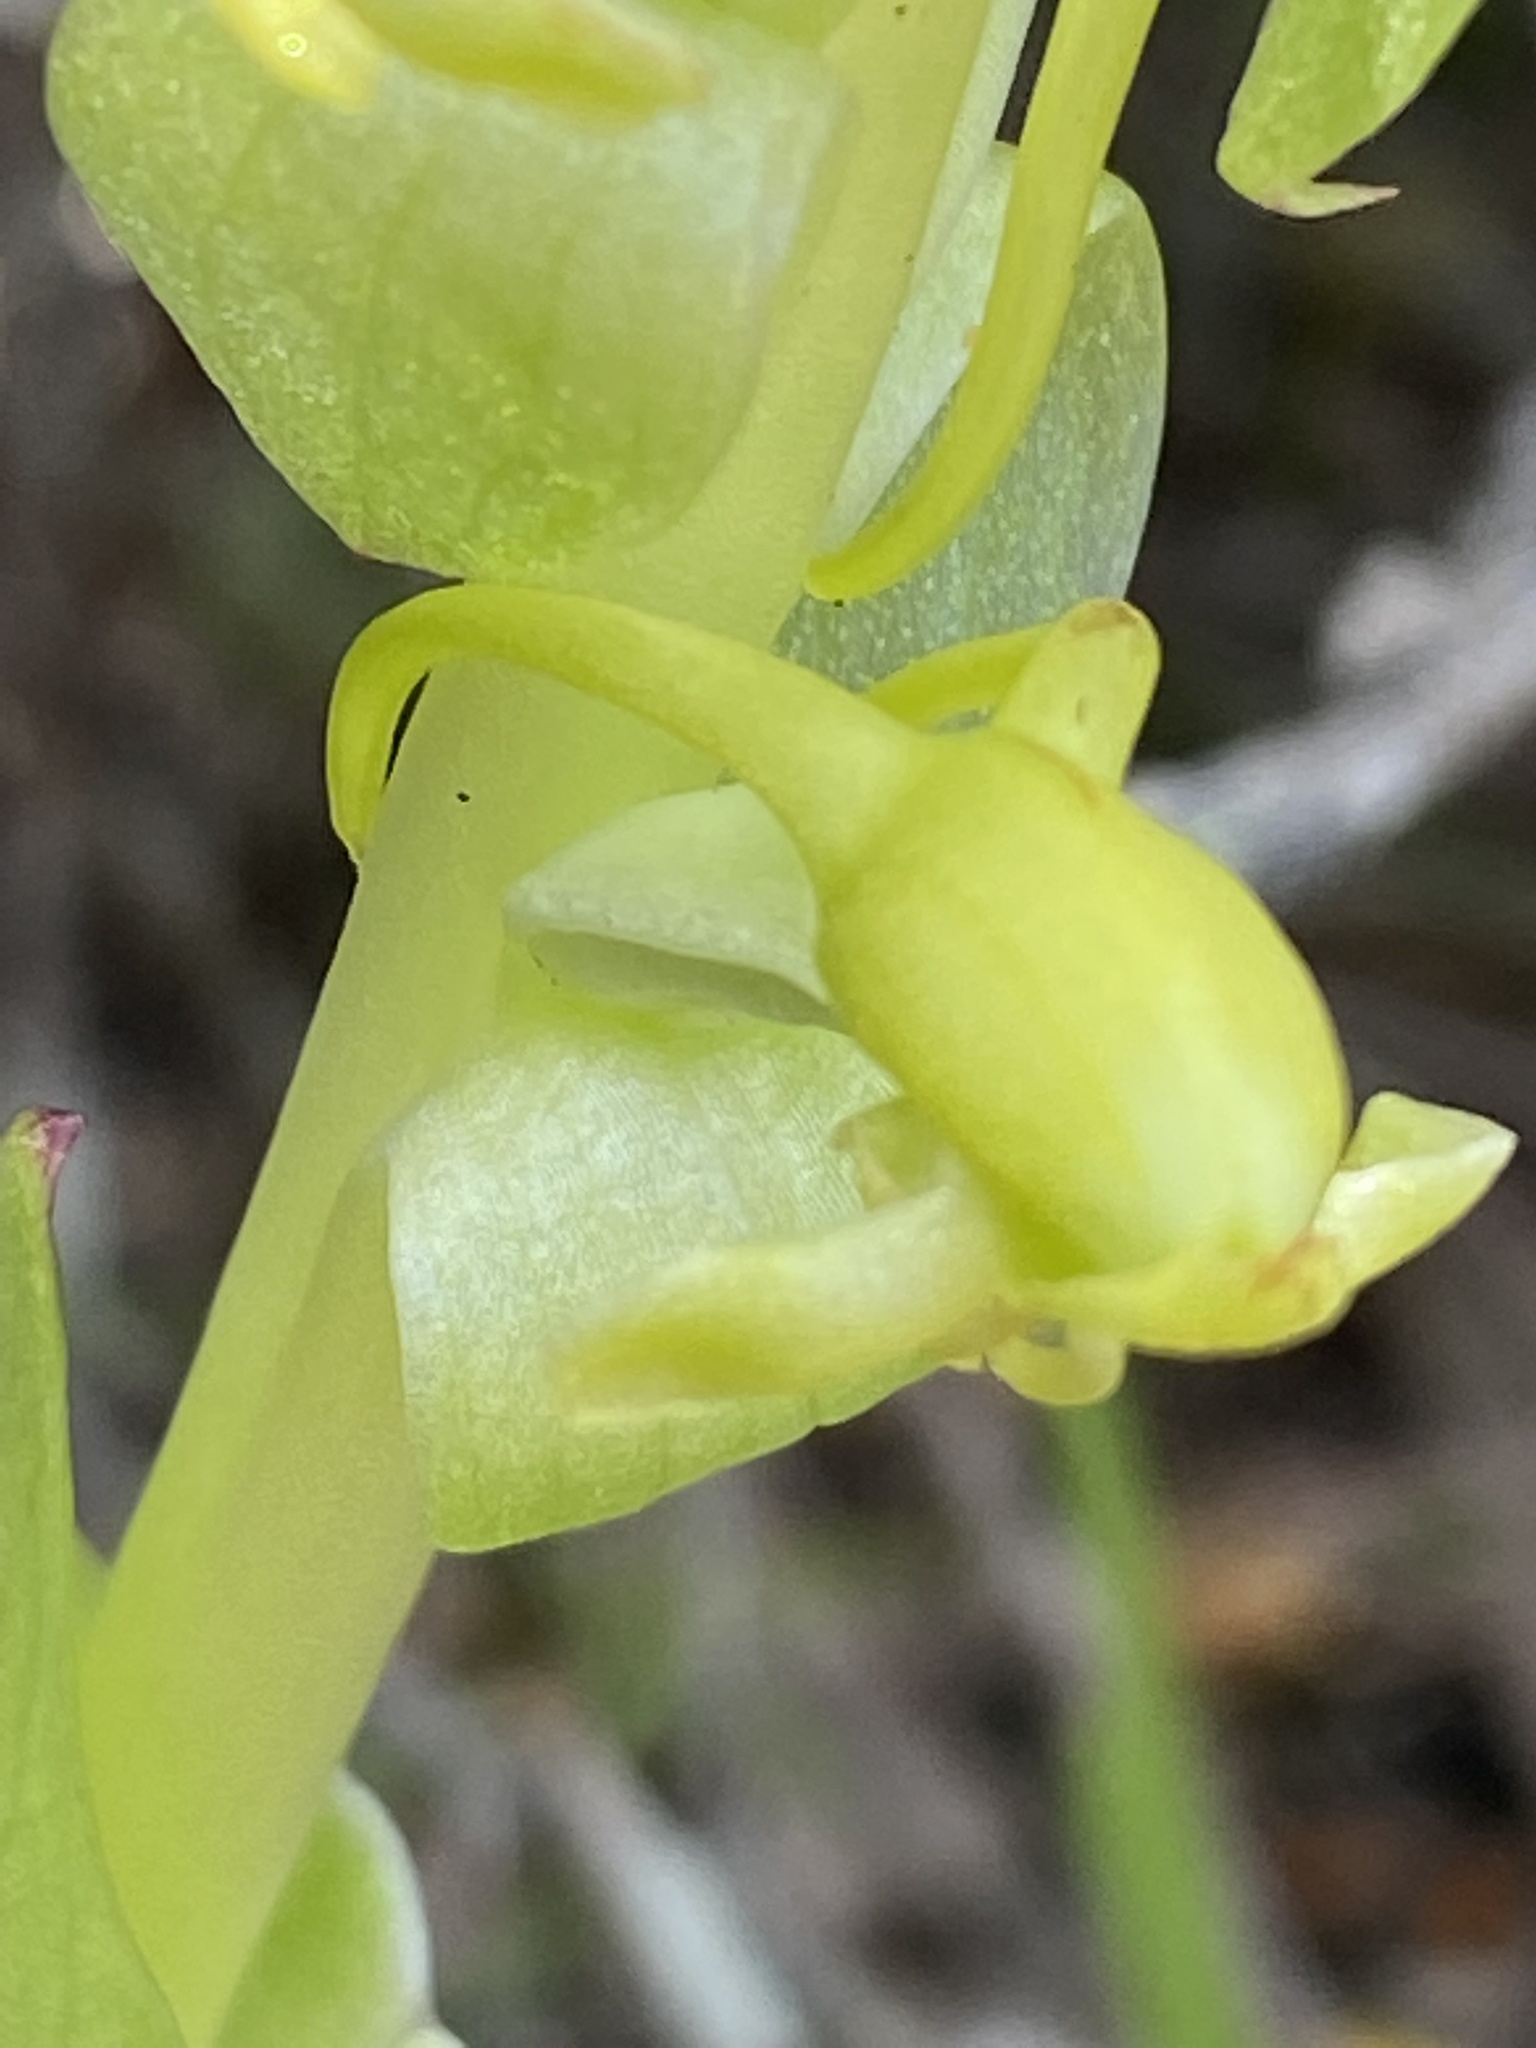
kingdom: Plantae
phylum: Tracheophyta
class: Liliopsida
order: Asparagales
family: Orchidaceae
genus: Satyrium
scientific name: Satyrium odorum
